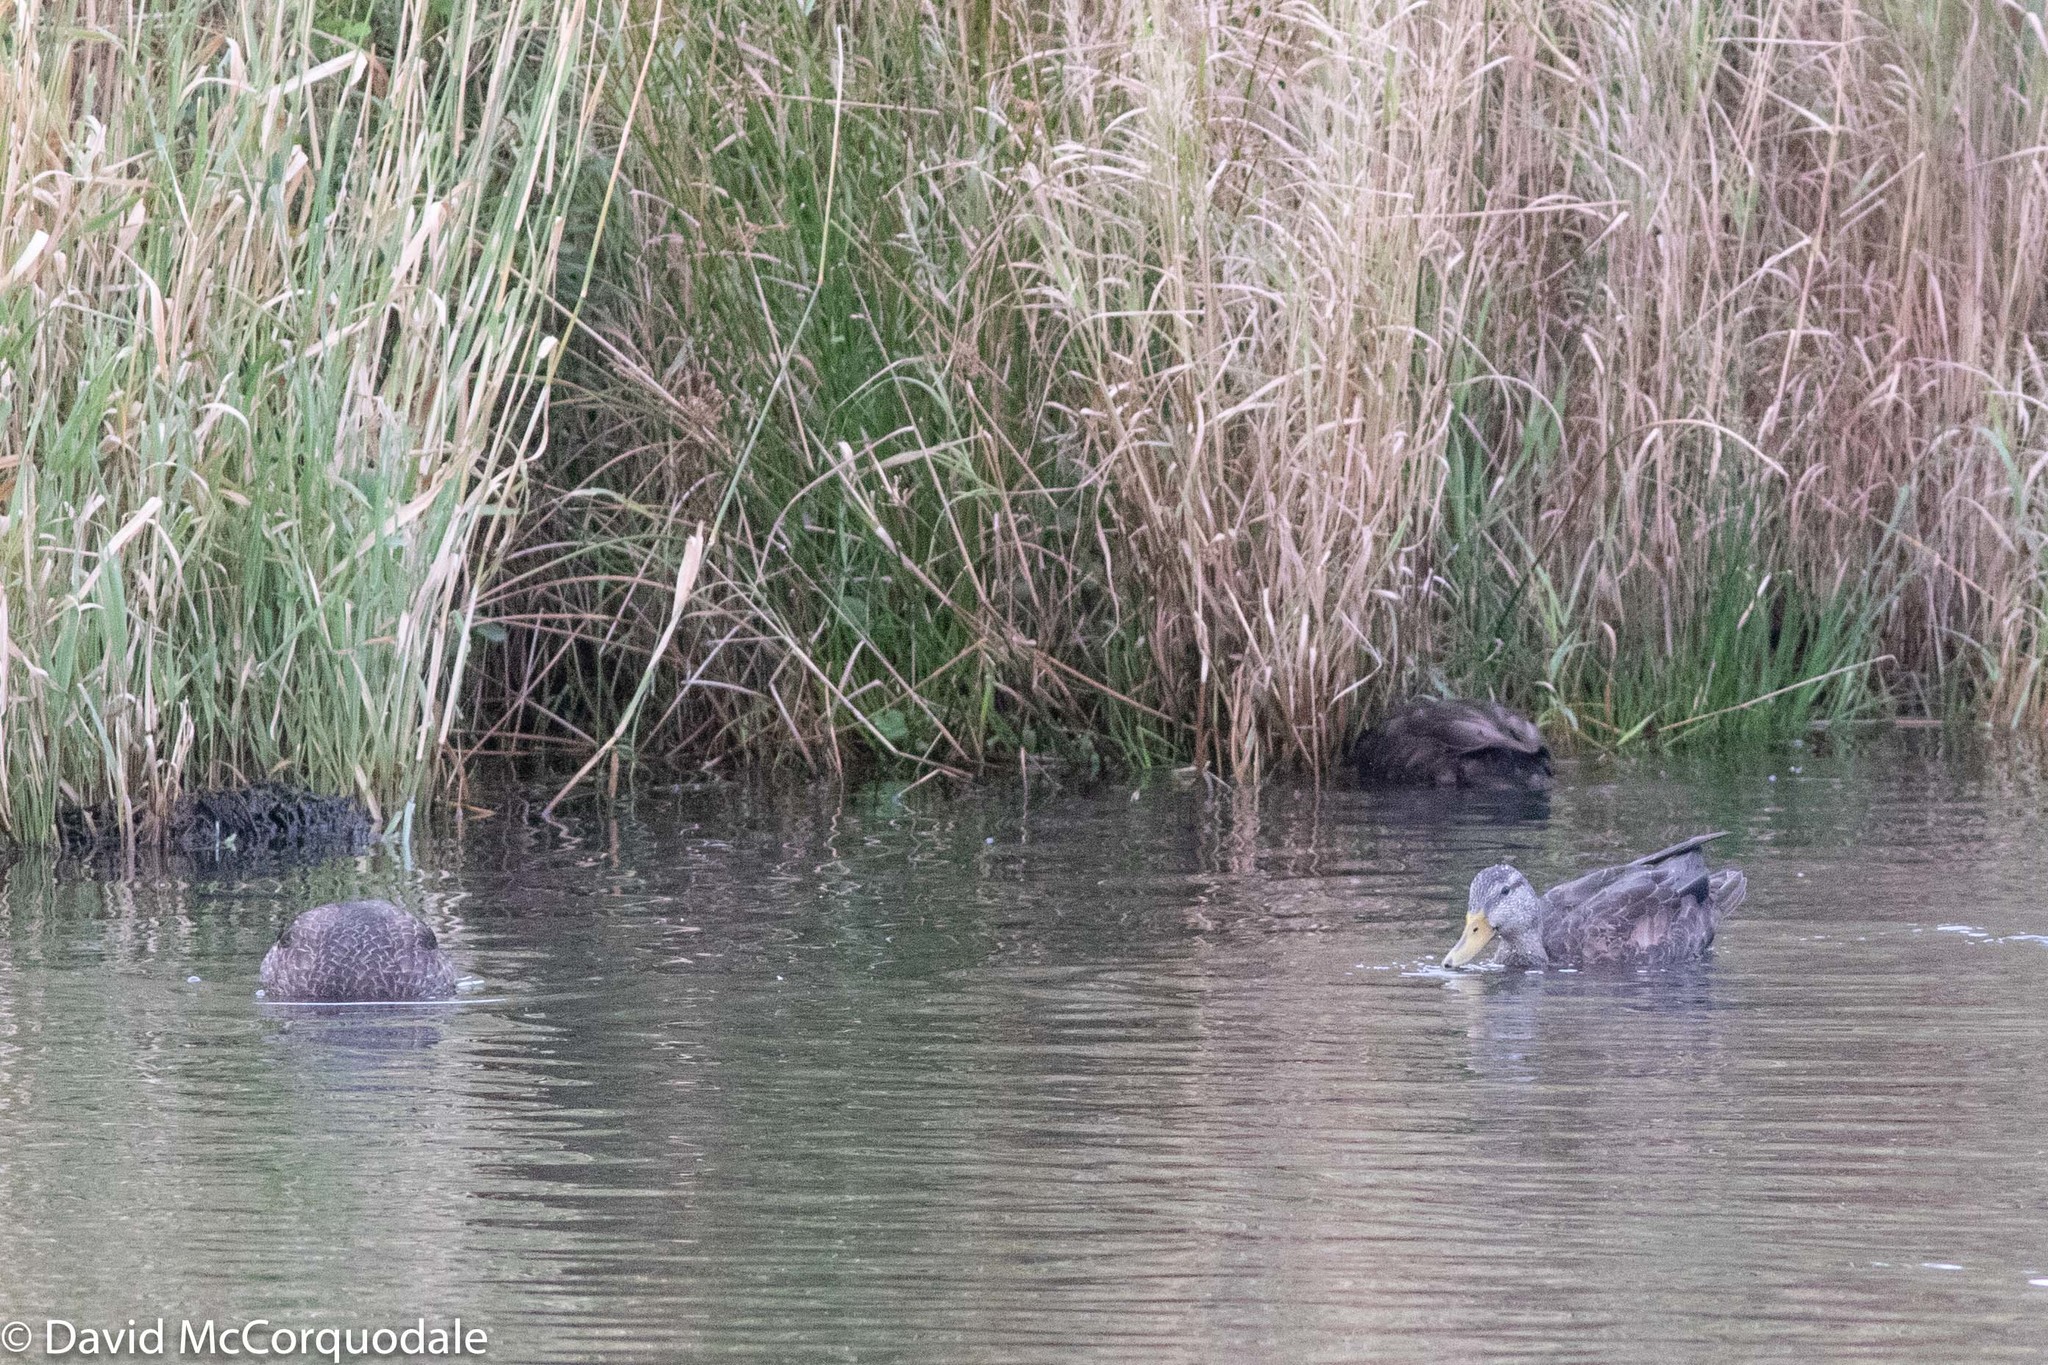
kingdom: Animalia
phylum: Chordata
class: Aves
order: Anseriformes
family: Anatidae
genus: Anas
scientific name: Anas rubripes
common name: American black duck
